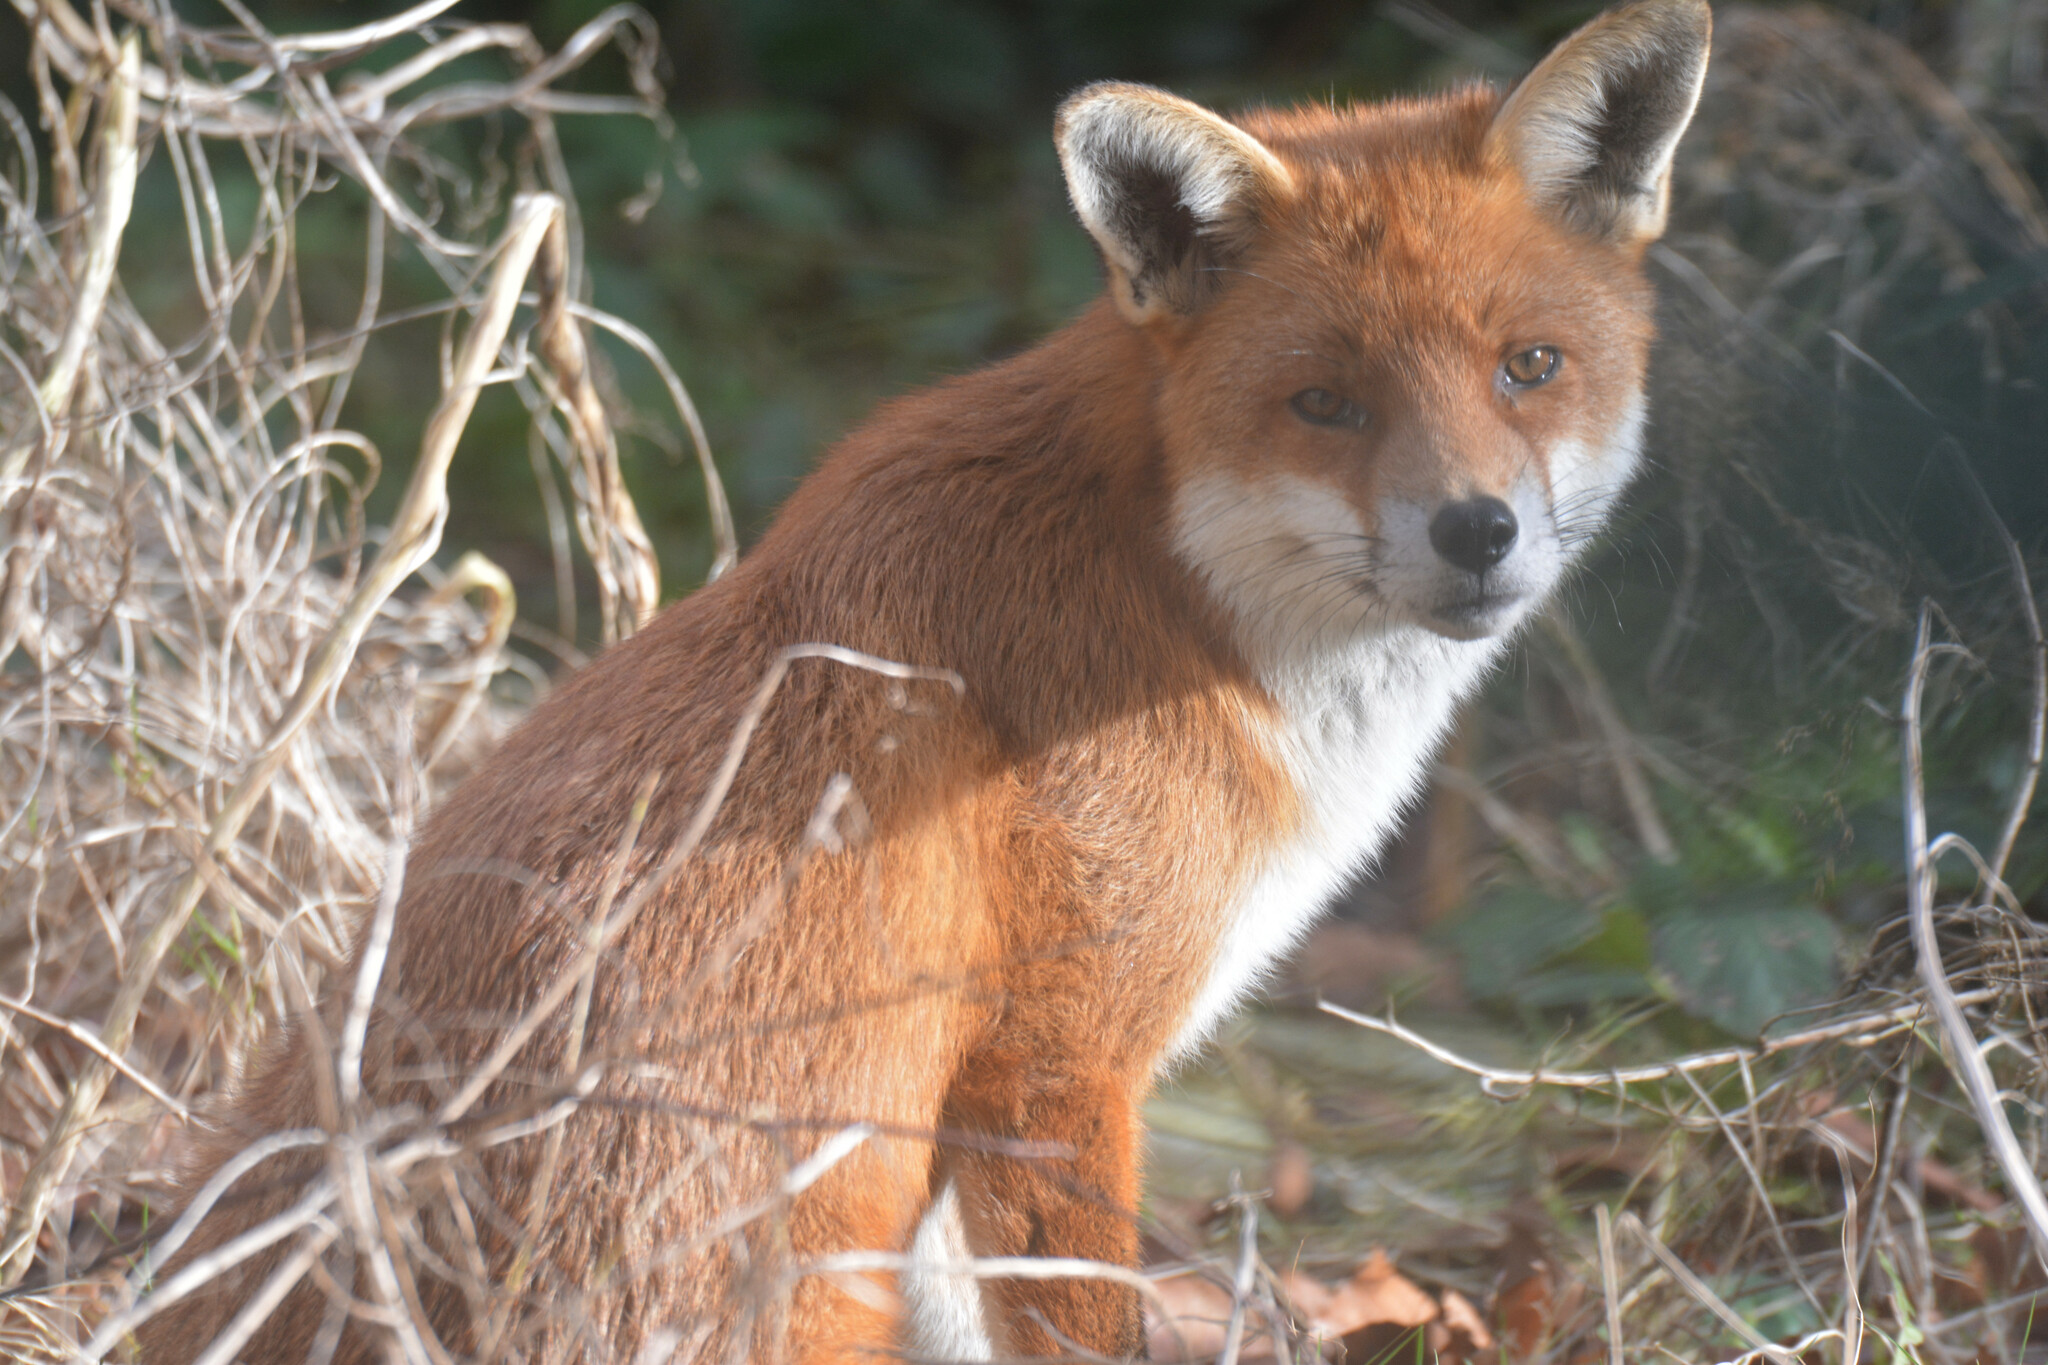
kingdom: Animalia
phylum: Chordata
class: Mammalia
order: Carnivora
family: Canidae
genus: Vulpes
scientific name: Vulpes vulpes
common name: Red fox
